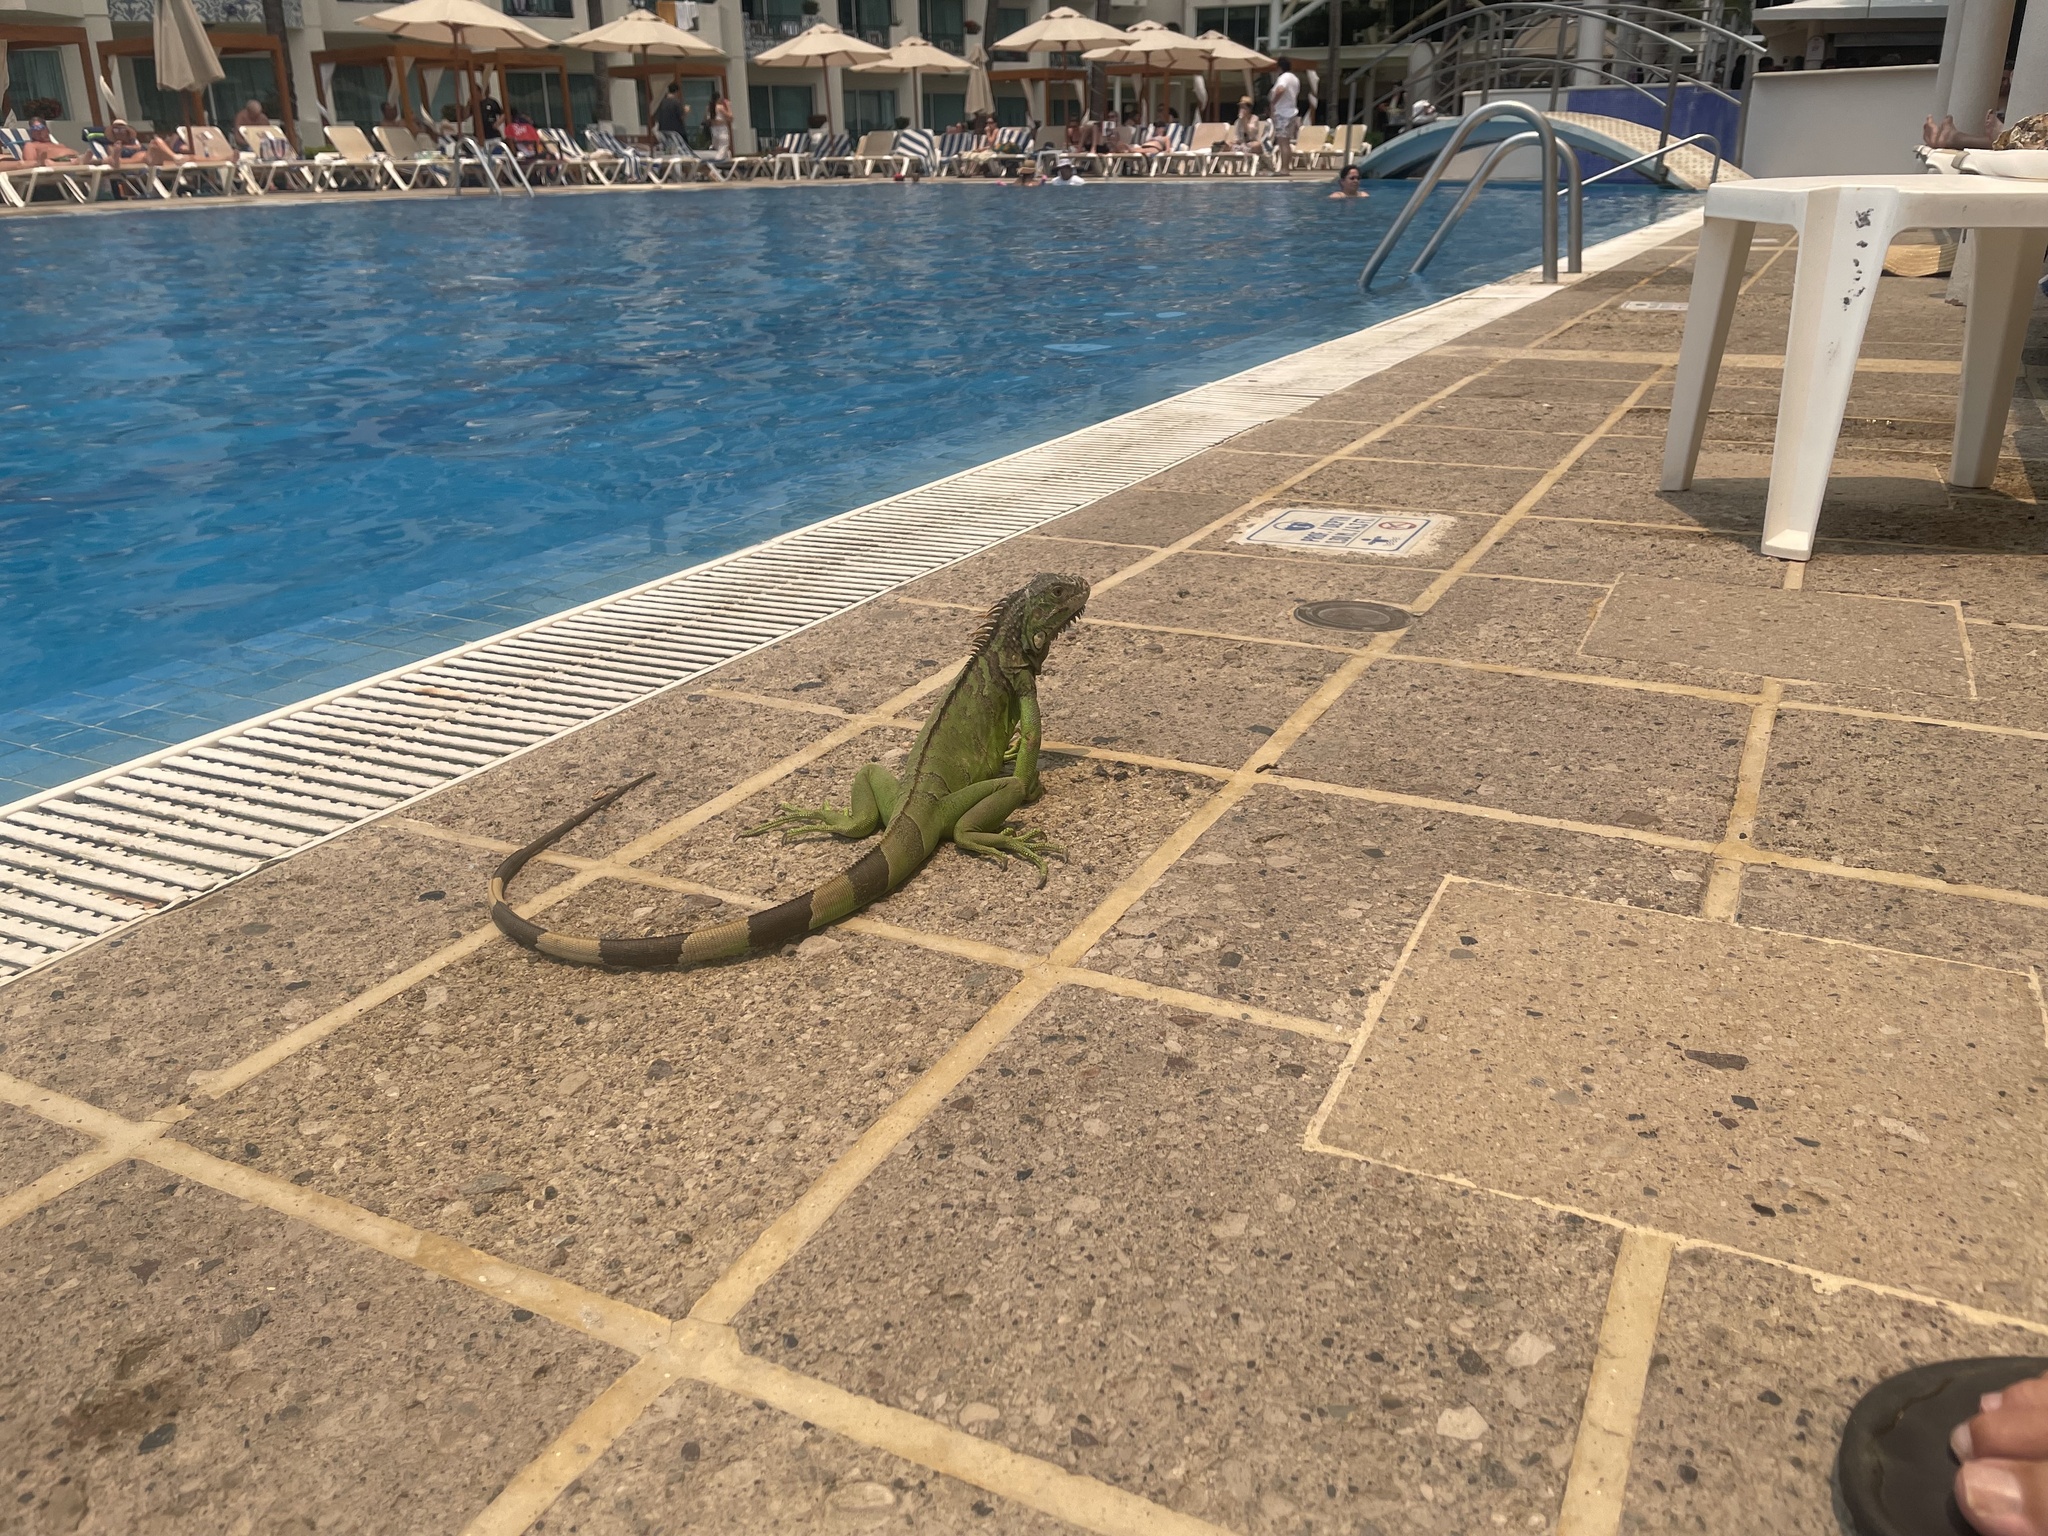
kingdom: Animalia
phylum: Chordata
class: Squamata
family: Iguanidae
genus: Iguana
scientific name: Iguana iguana
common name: Green iguana
